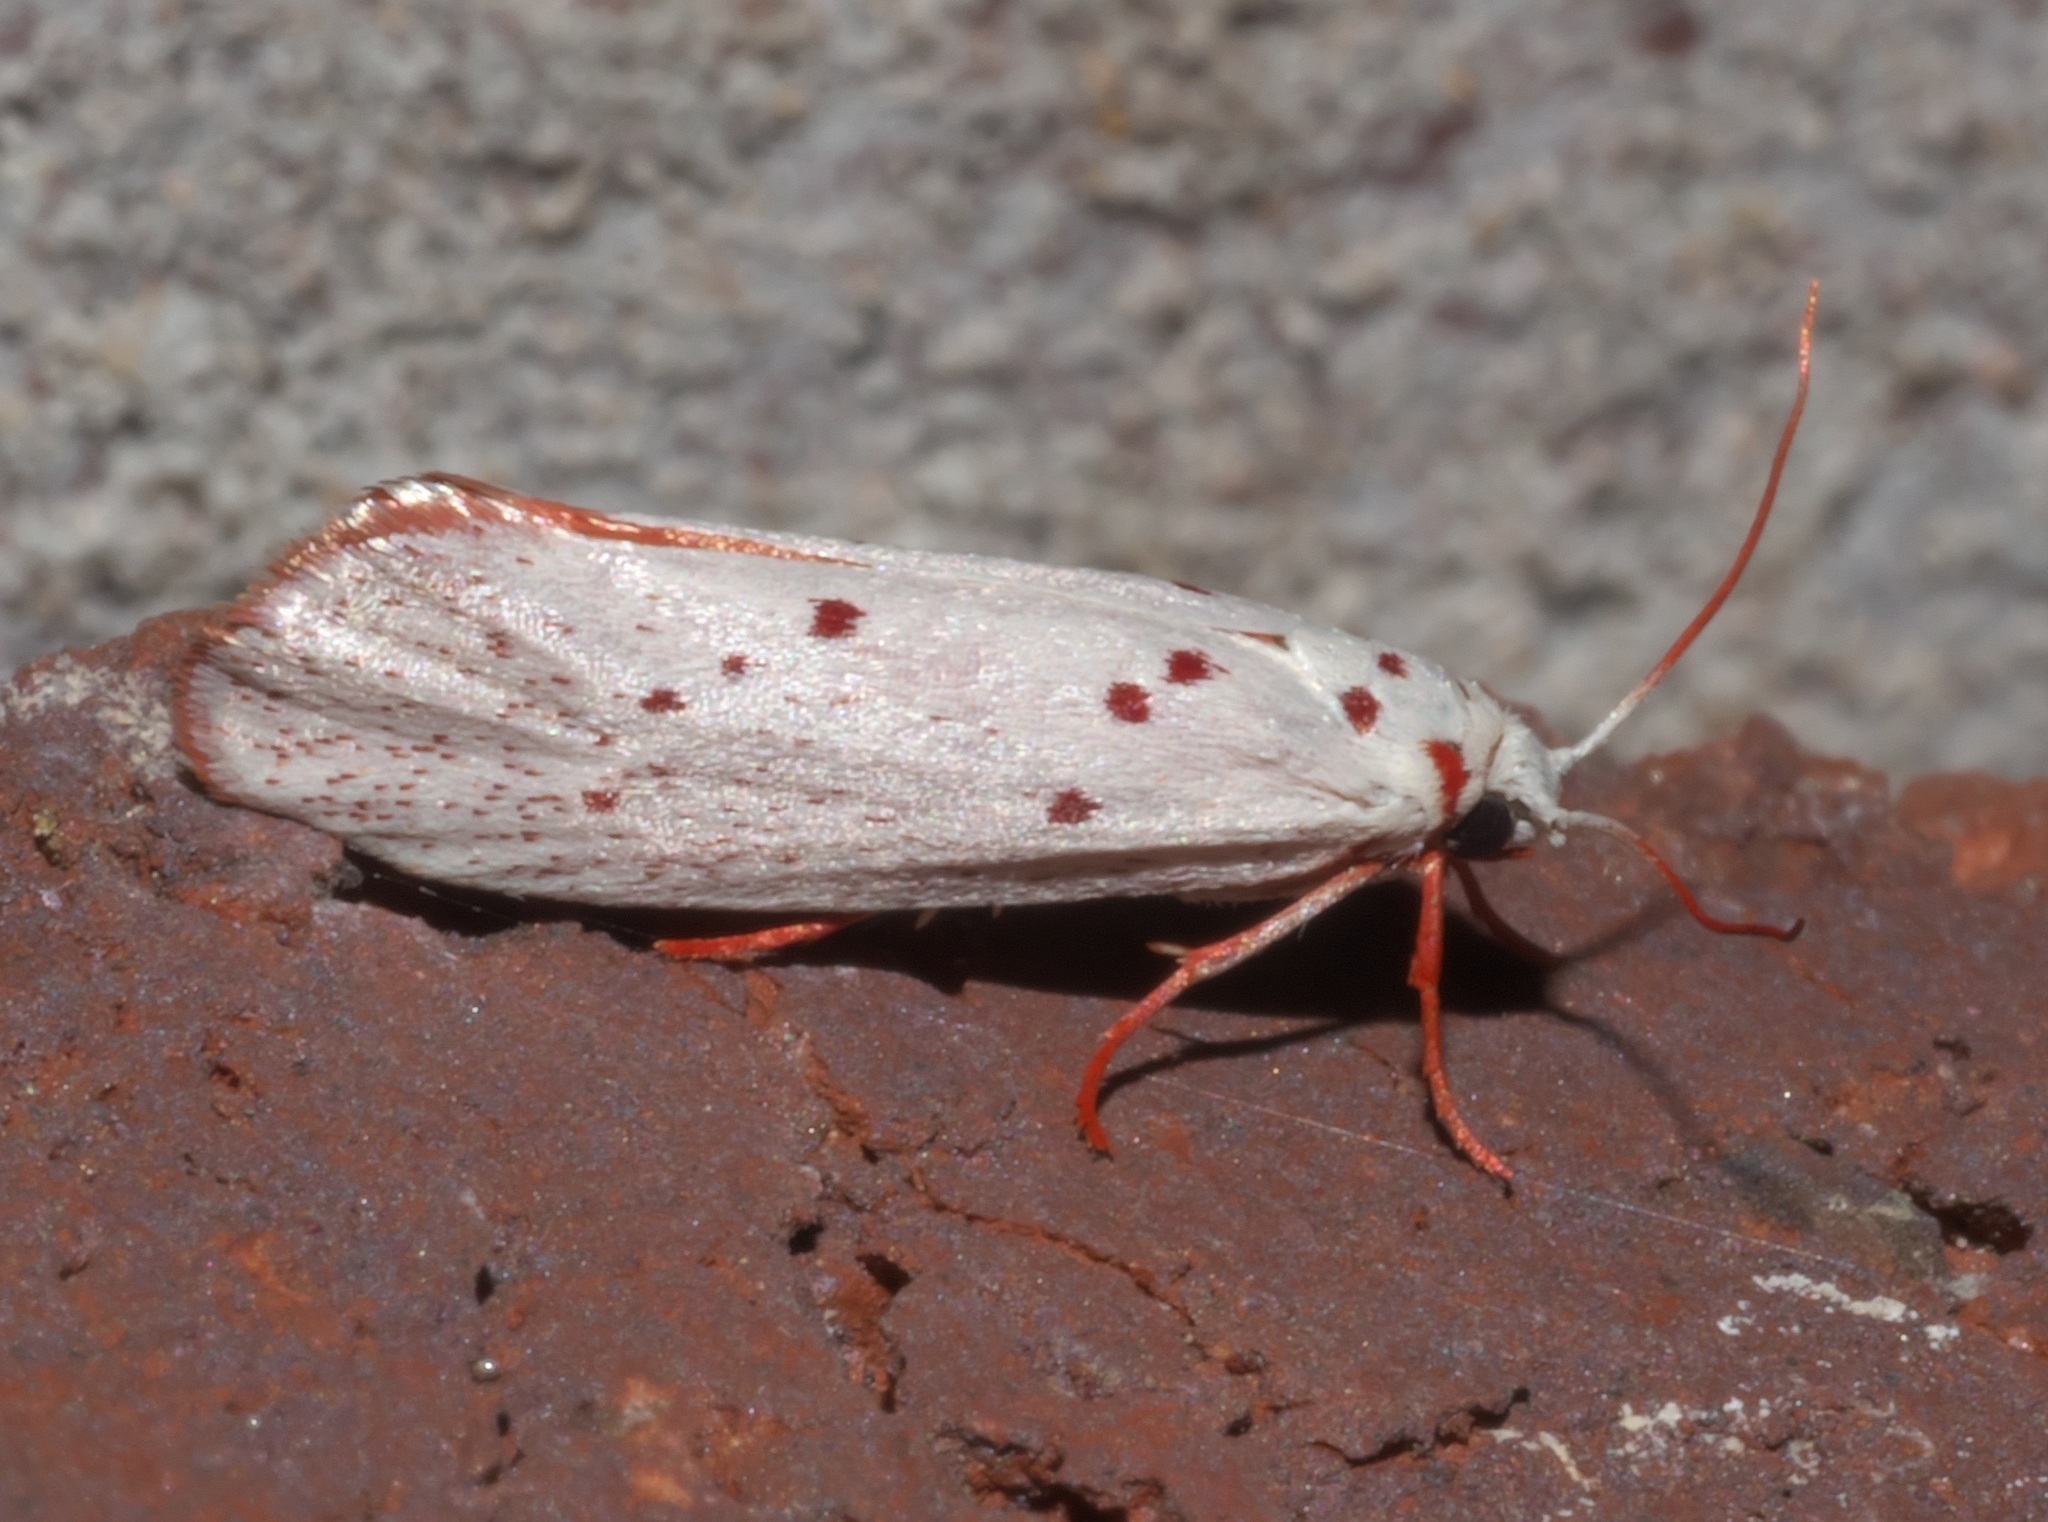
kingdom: Animalia
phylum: Arthropoda
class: Insecta
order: Lepidoptera
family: Lacturidae
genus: Lactura
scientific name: Lactura
